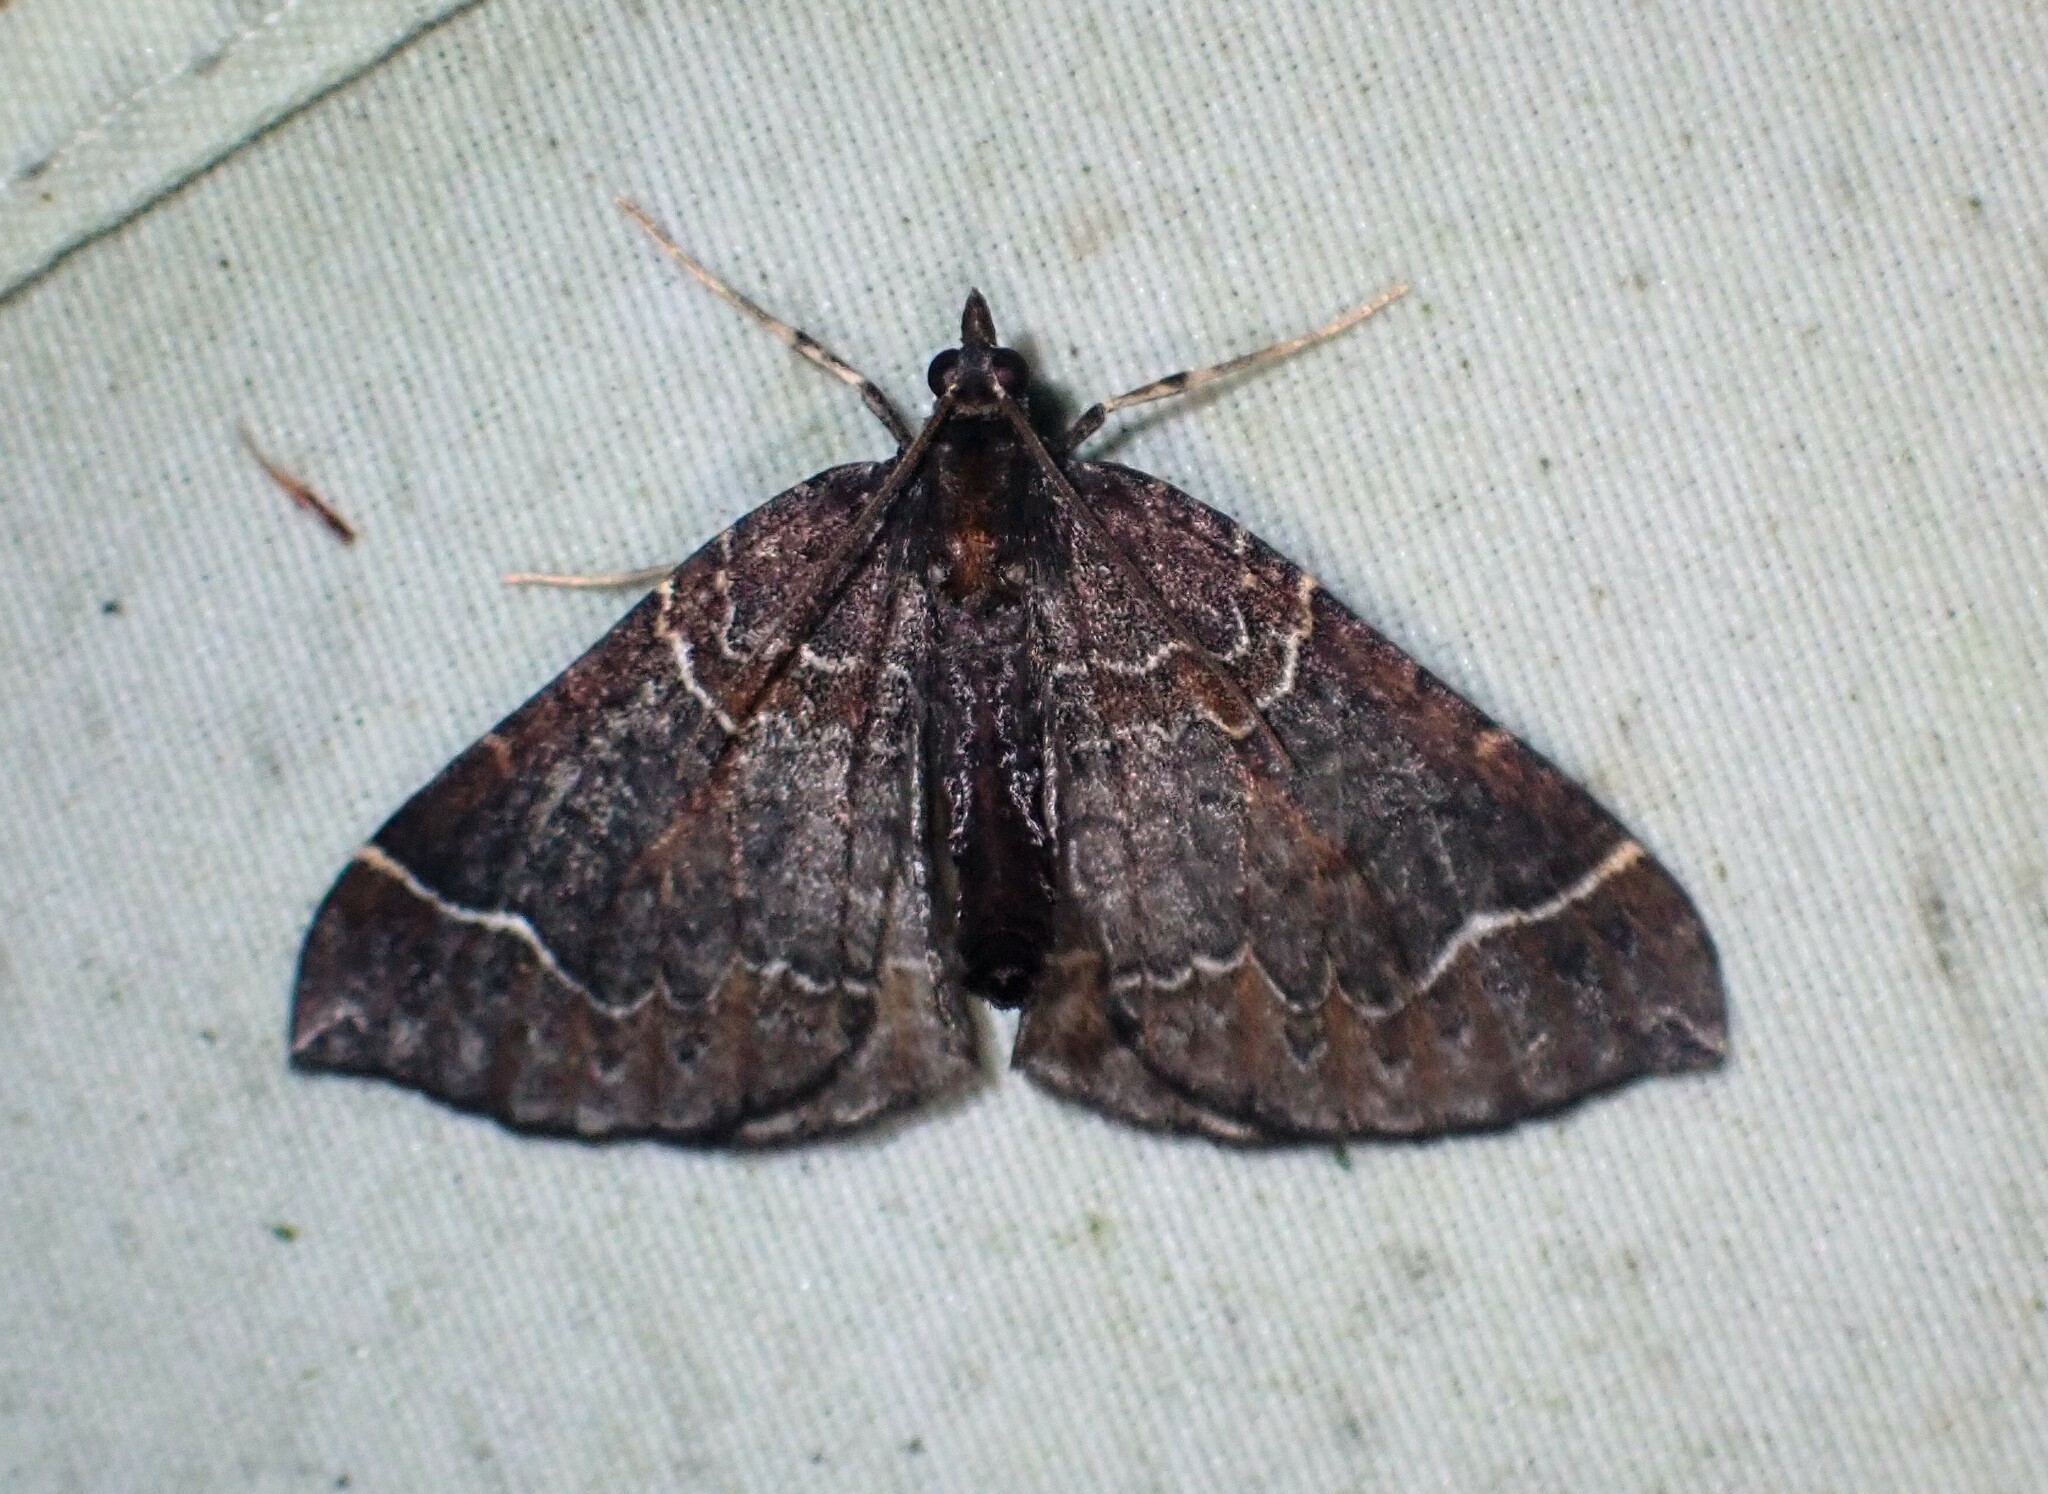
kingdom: Animalia
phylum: Arthropoda
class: Insecta
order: Lepidoptera
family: Geometridae
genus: Eulithis
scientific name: Eulithis flavibrunneata
